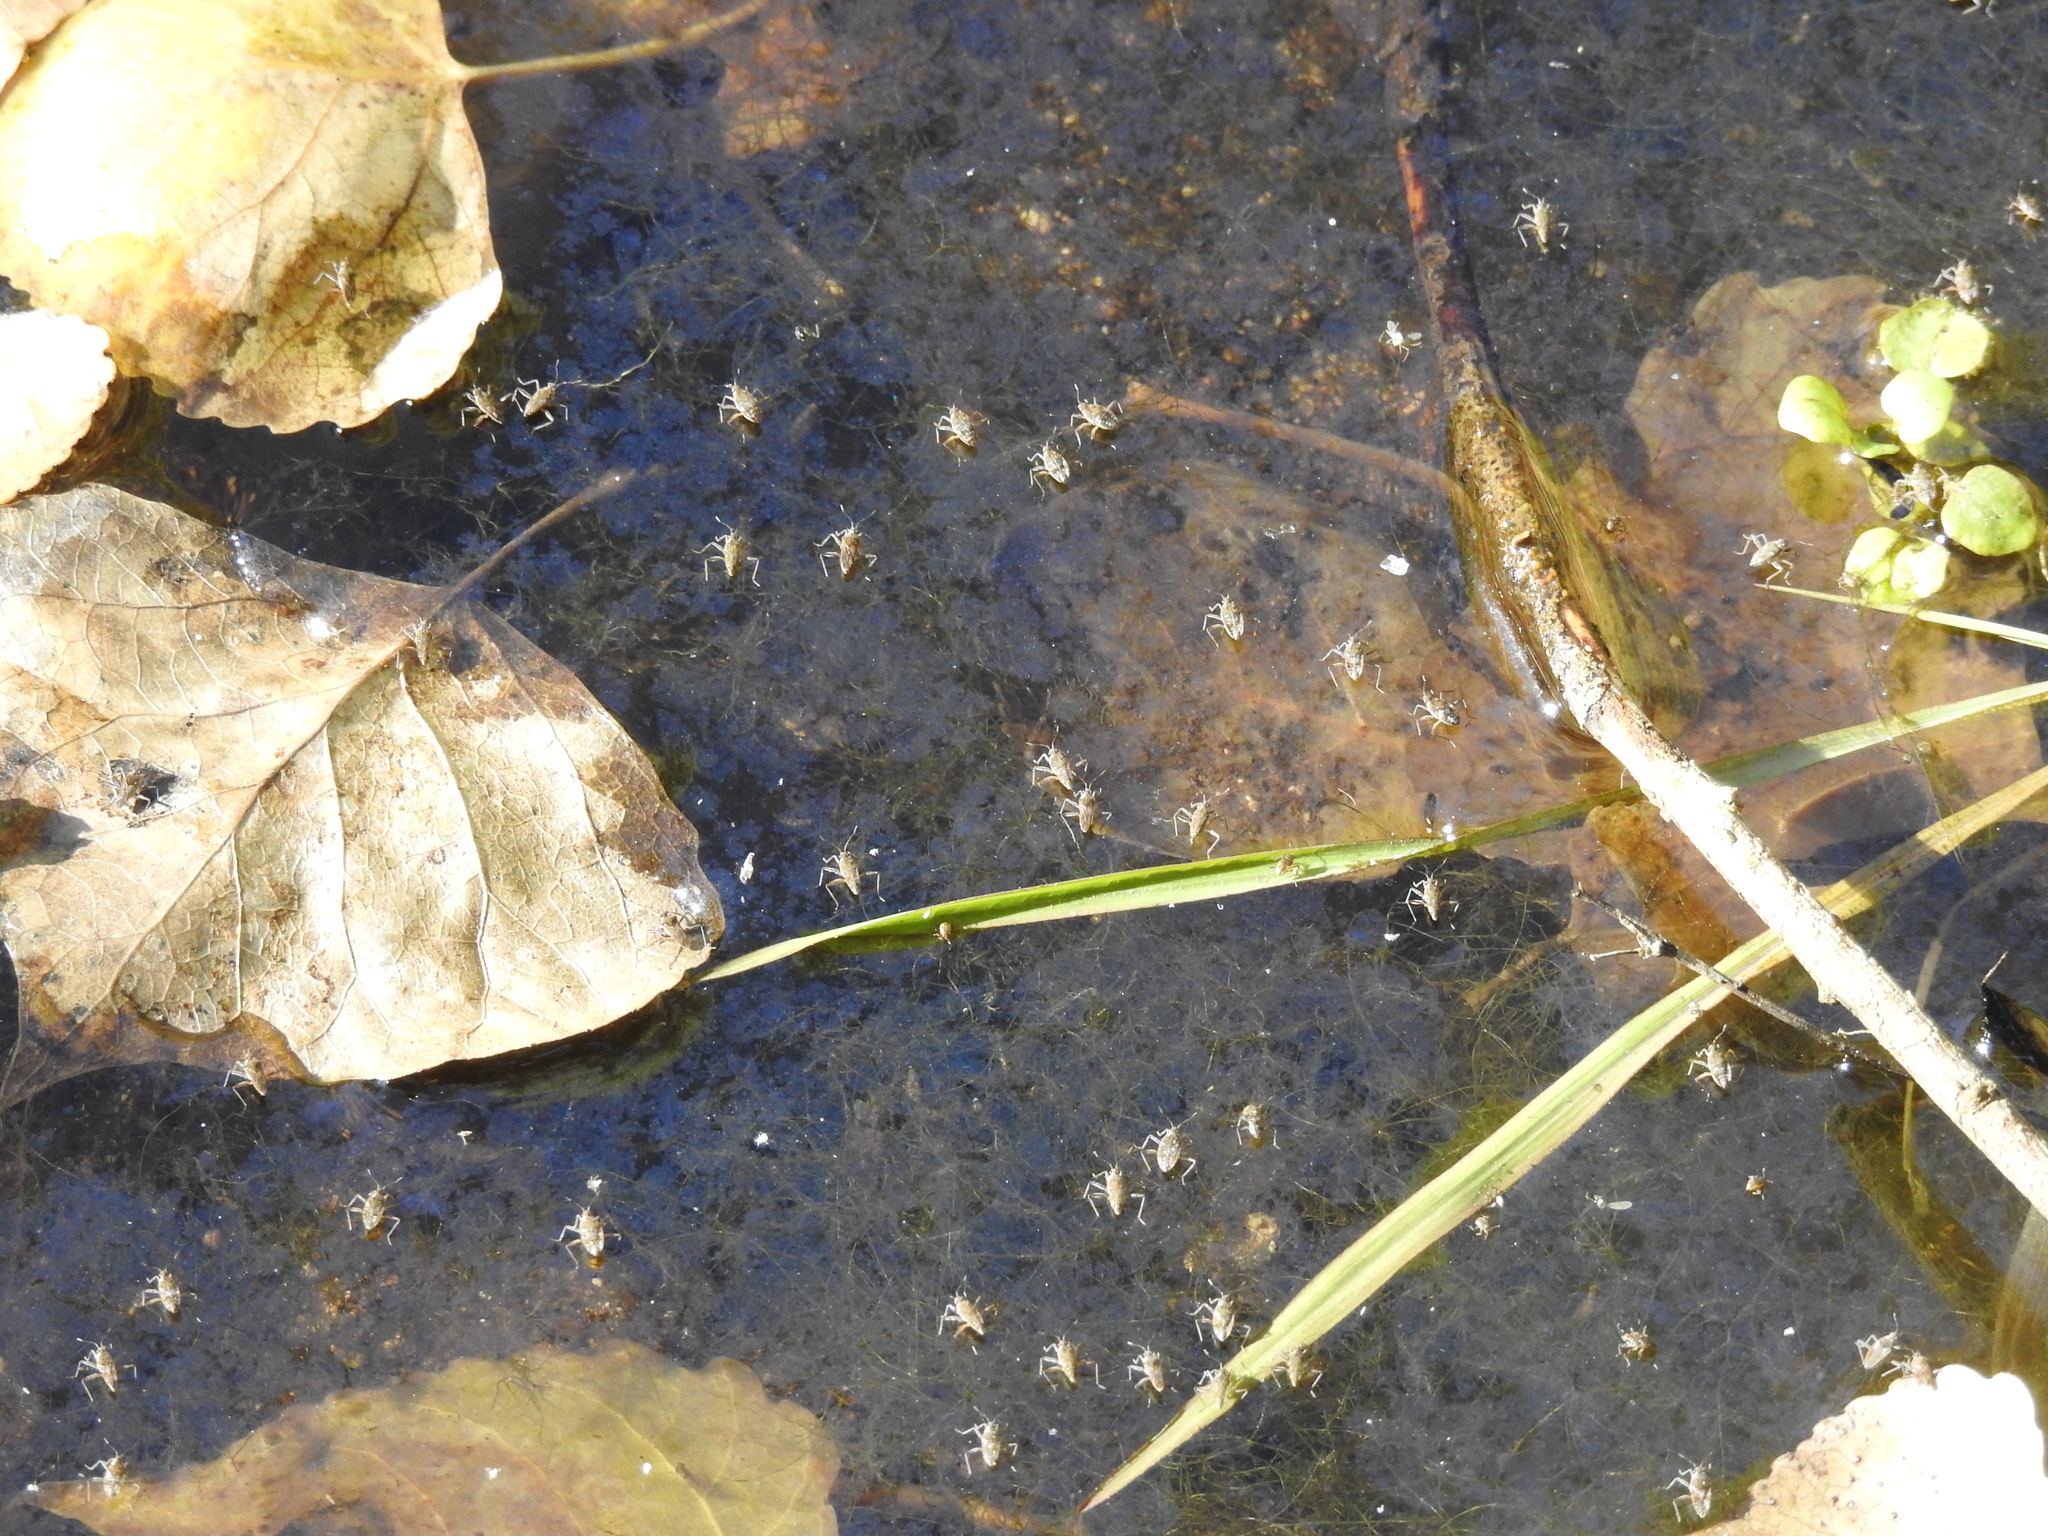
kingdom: Animalia
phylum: Arthropoda
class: Insecta
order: Hemiptera
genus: Kirkaldya
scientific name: Kirkaldya
